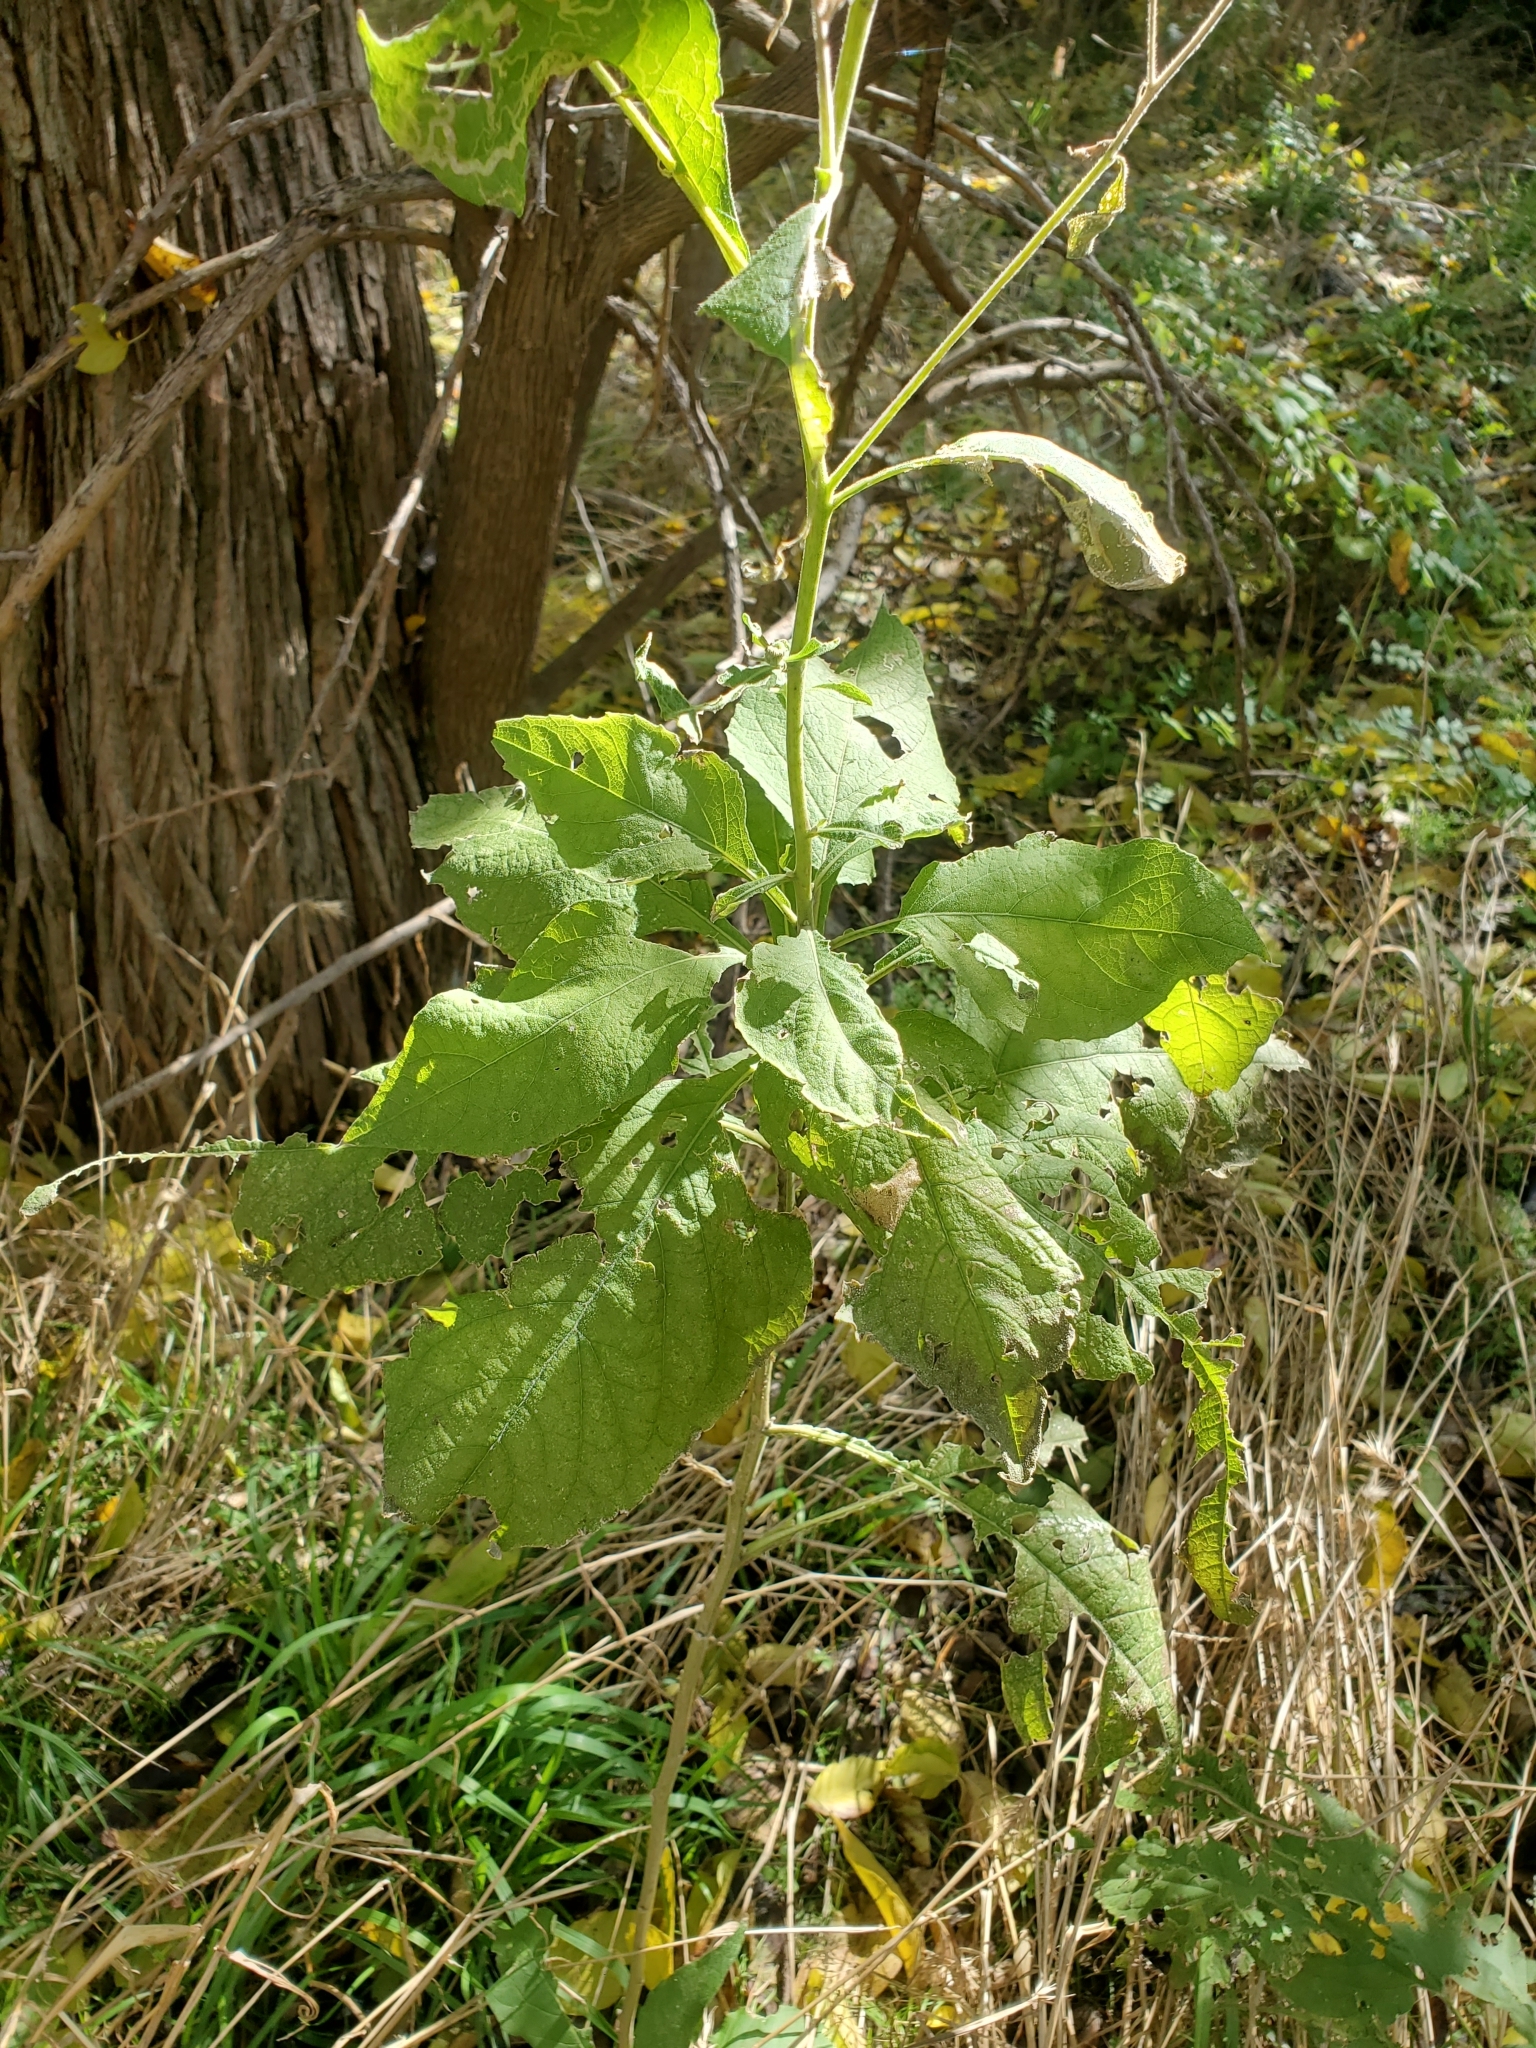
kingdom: Plantae
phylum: Tracheophyta
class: Magnoliopsida
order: Asterales
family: Asteraceae
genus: Verbesina
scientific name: Verbesina virginica
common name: Frostweed
